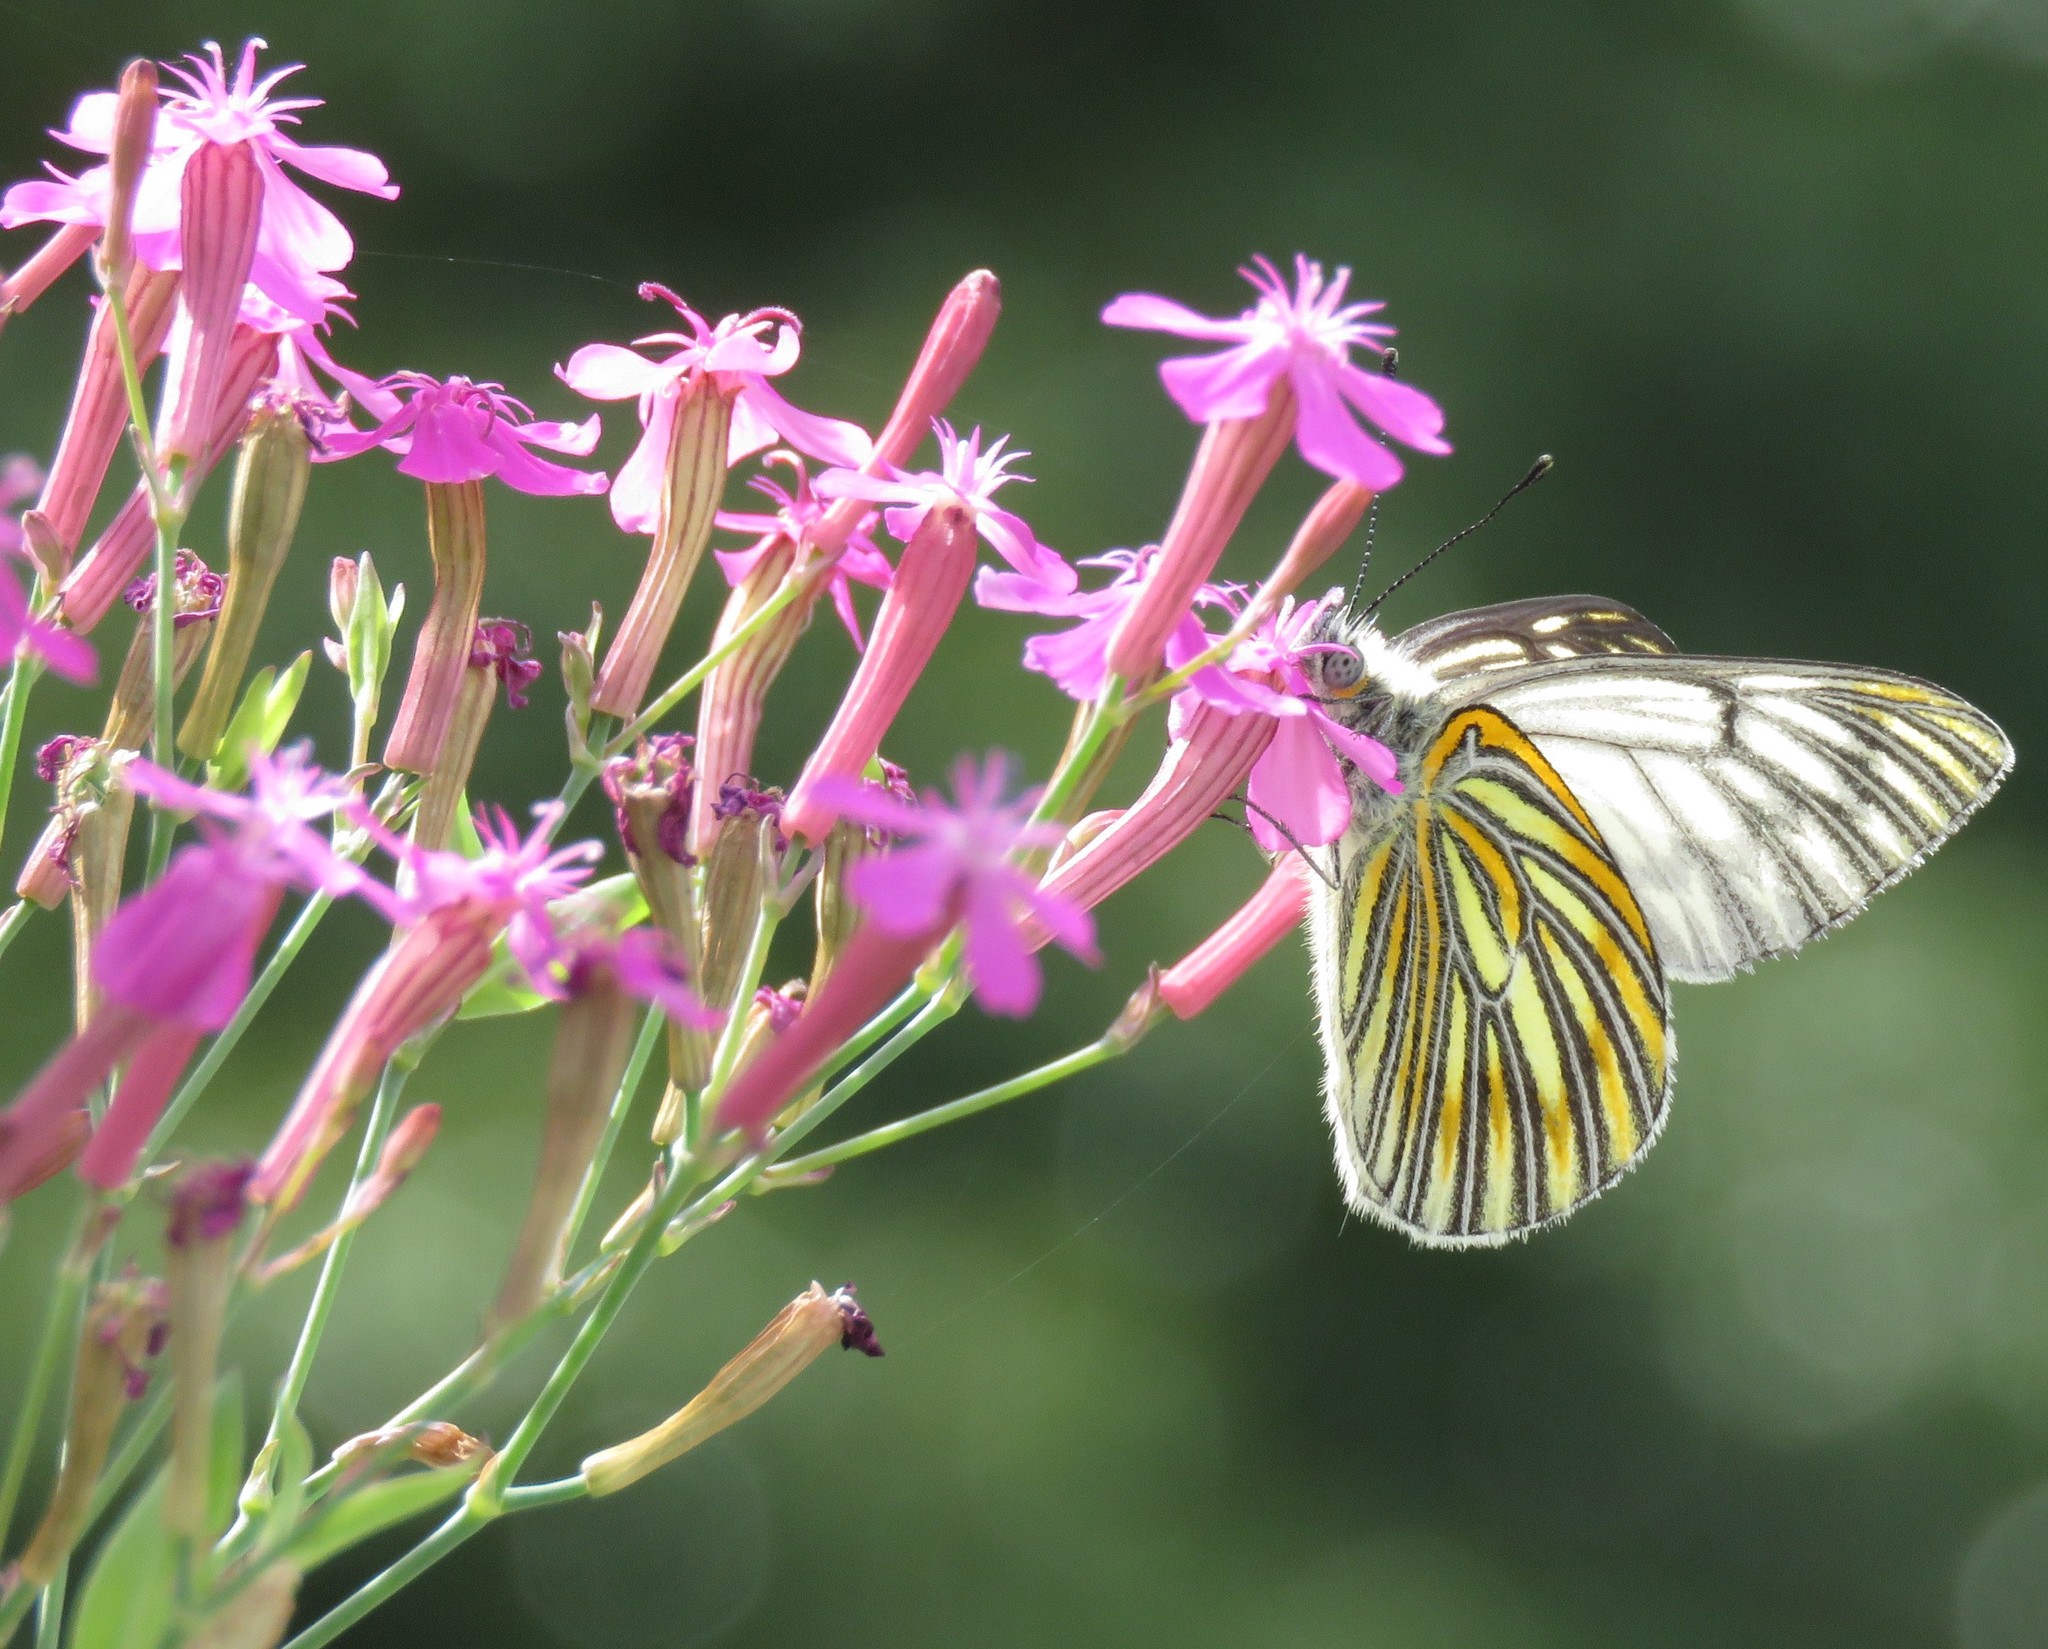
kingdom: Animalia
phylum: Arthropoda
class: Insecta
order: Lepidoptera
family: Pieridae
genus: Tatochila
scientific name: Tatochila xanthodice
